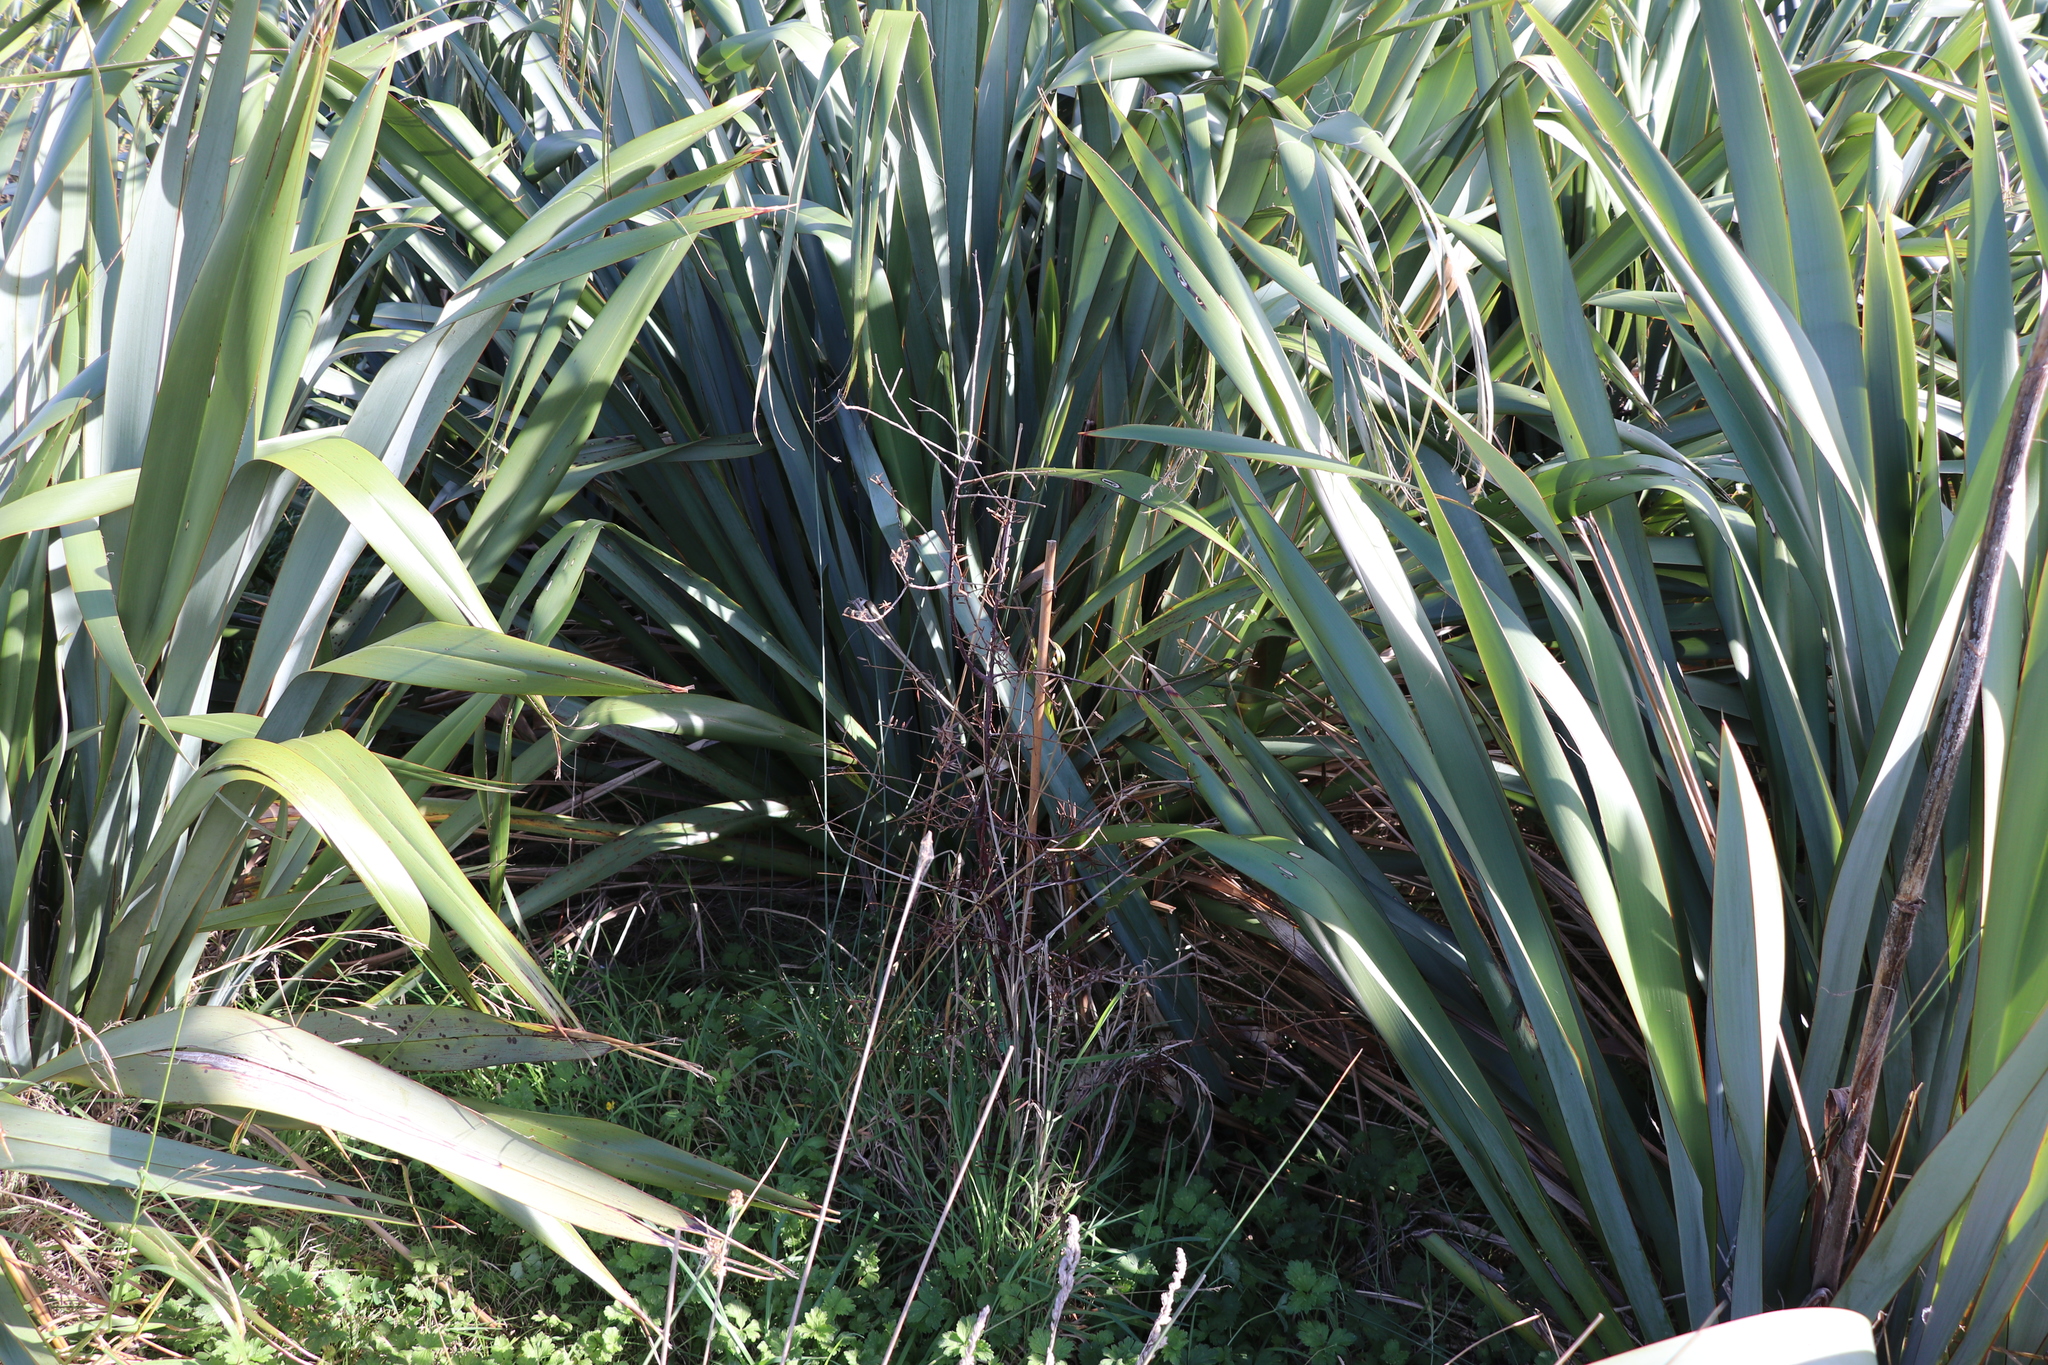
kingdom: Plantae
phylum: Tracheophyta
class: Pinopsida
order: Pinales
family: Podocarpaceae
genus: Dacrycarpus
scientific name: Dacrycarpus dacrydioides
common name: White pine
